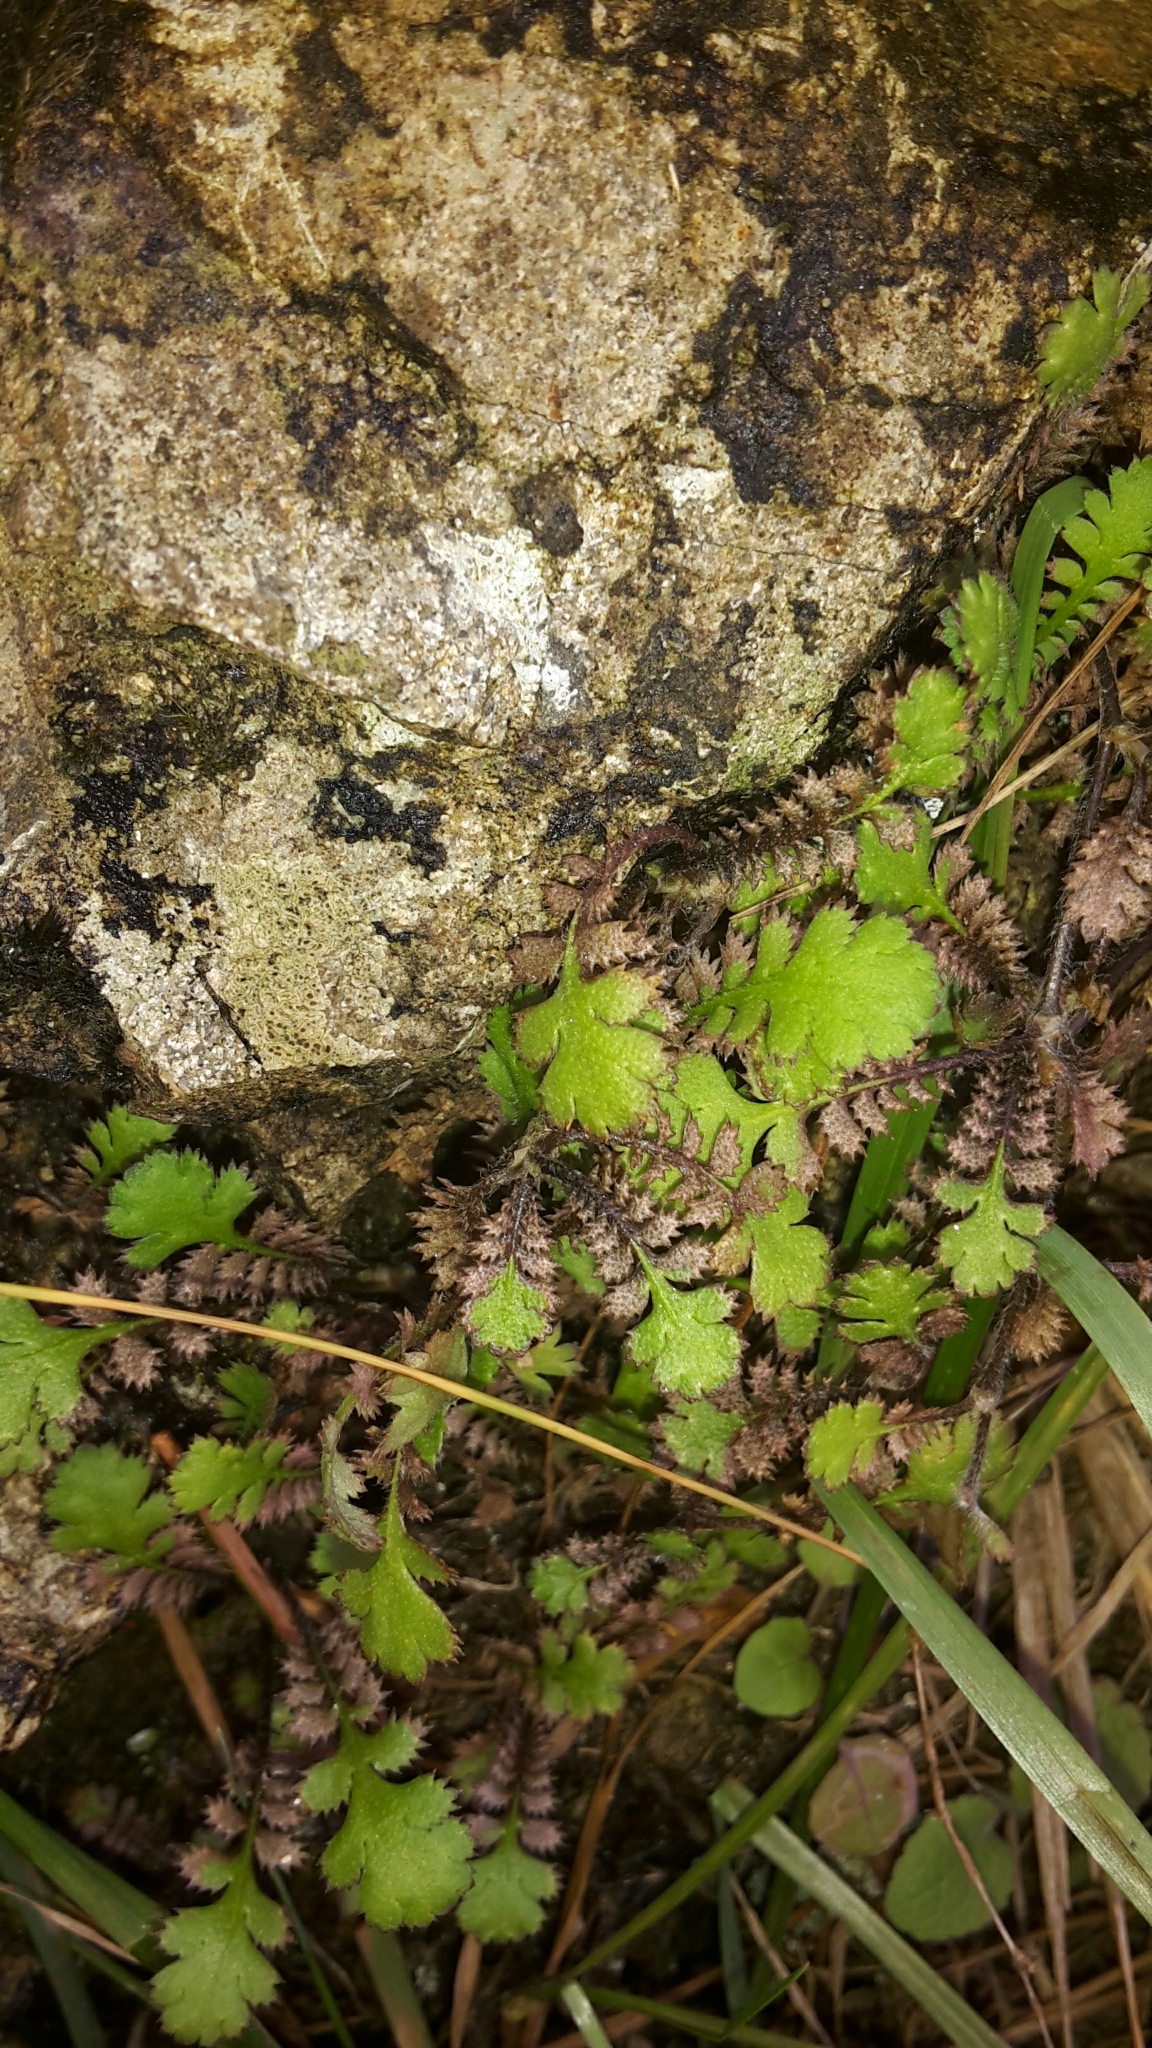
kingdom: Plantae
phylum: Tracheophyta
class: Magnoliopsida
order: Asterales
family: Asteraceae
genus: Leptinella
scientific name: Leptinella squalida
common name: New zealand brass-buttons
